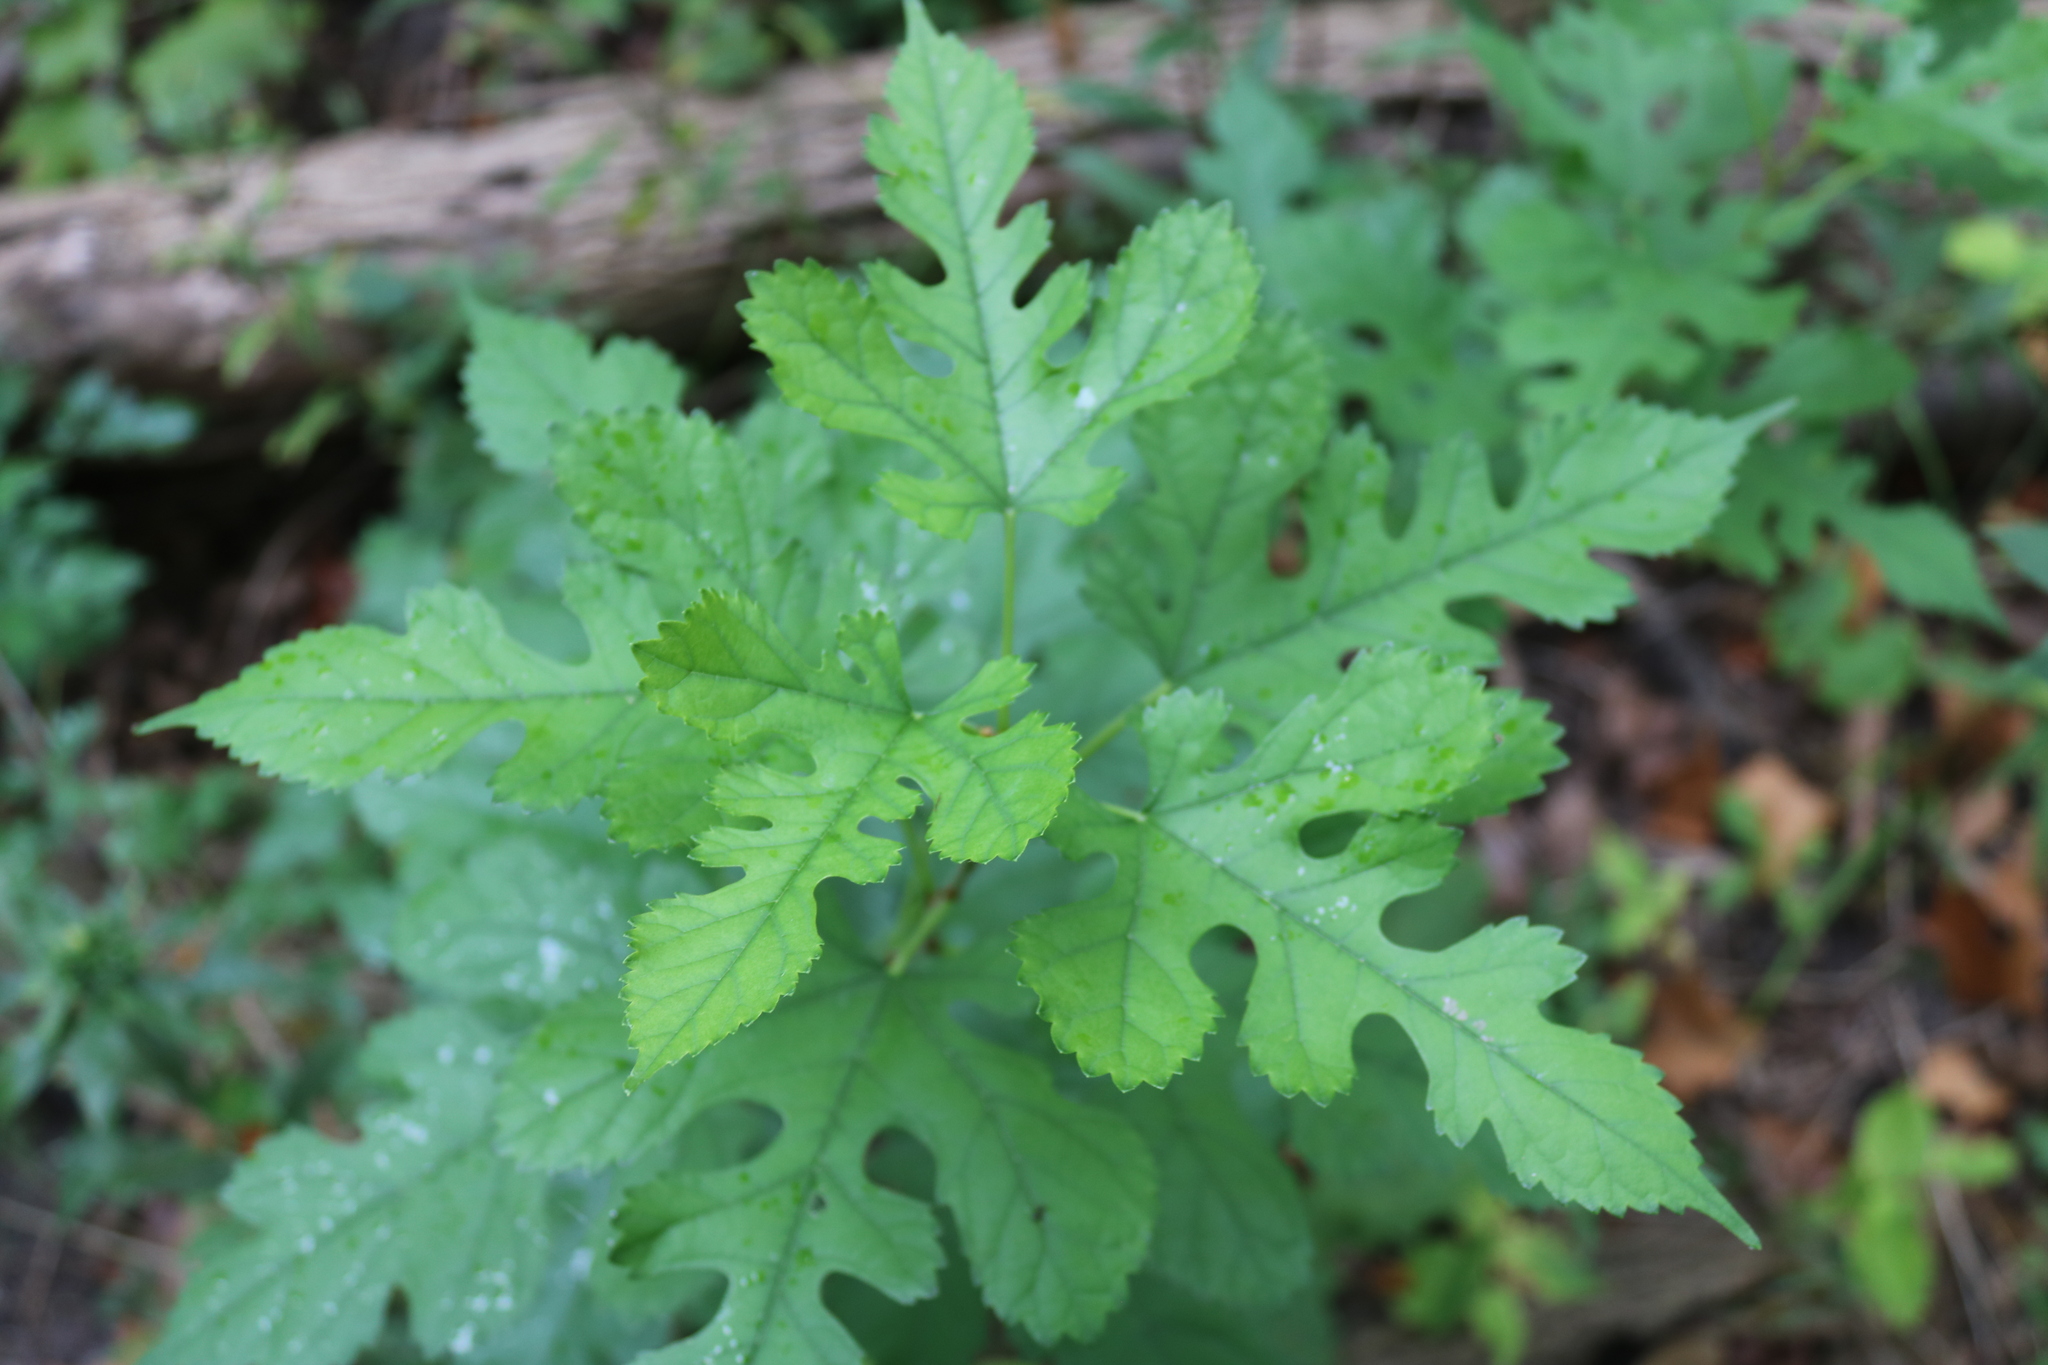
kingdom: Plantae
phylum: Tracheophyta
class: Magnoliopsida
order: Rosales
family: Moraceae
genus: Morus
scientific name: Morus alba
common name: White mulberry
